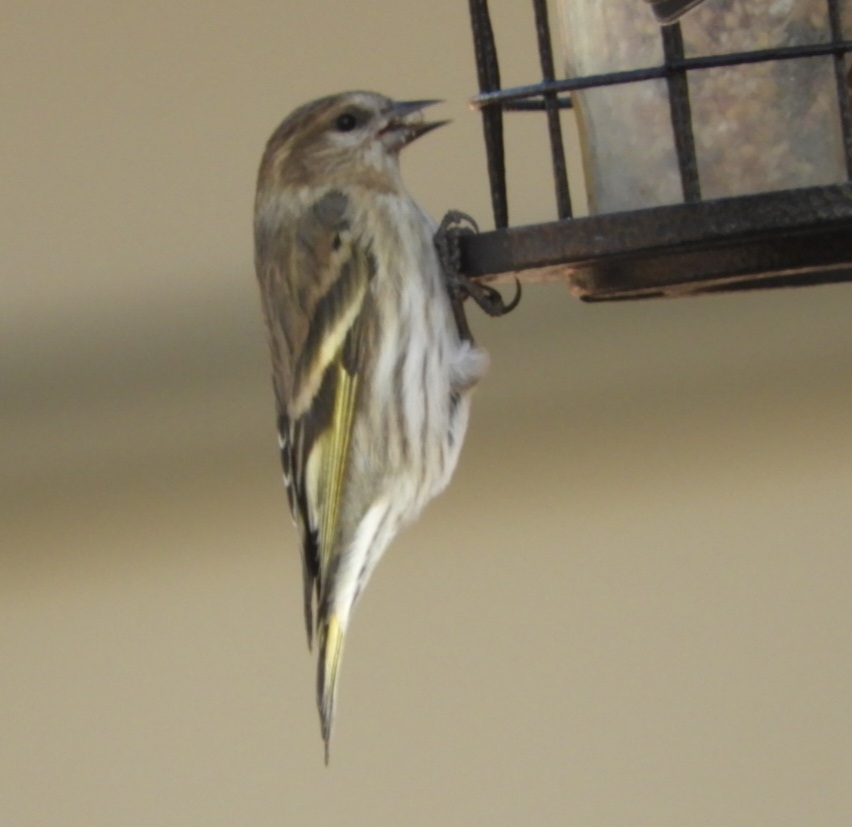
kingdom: Animalia
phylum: Chordata
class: Aves
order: Passeriformes
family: Fringillidae
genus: Spinus
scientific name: Spinus pinus
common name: Pine siskin
